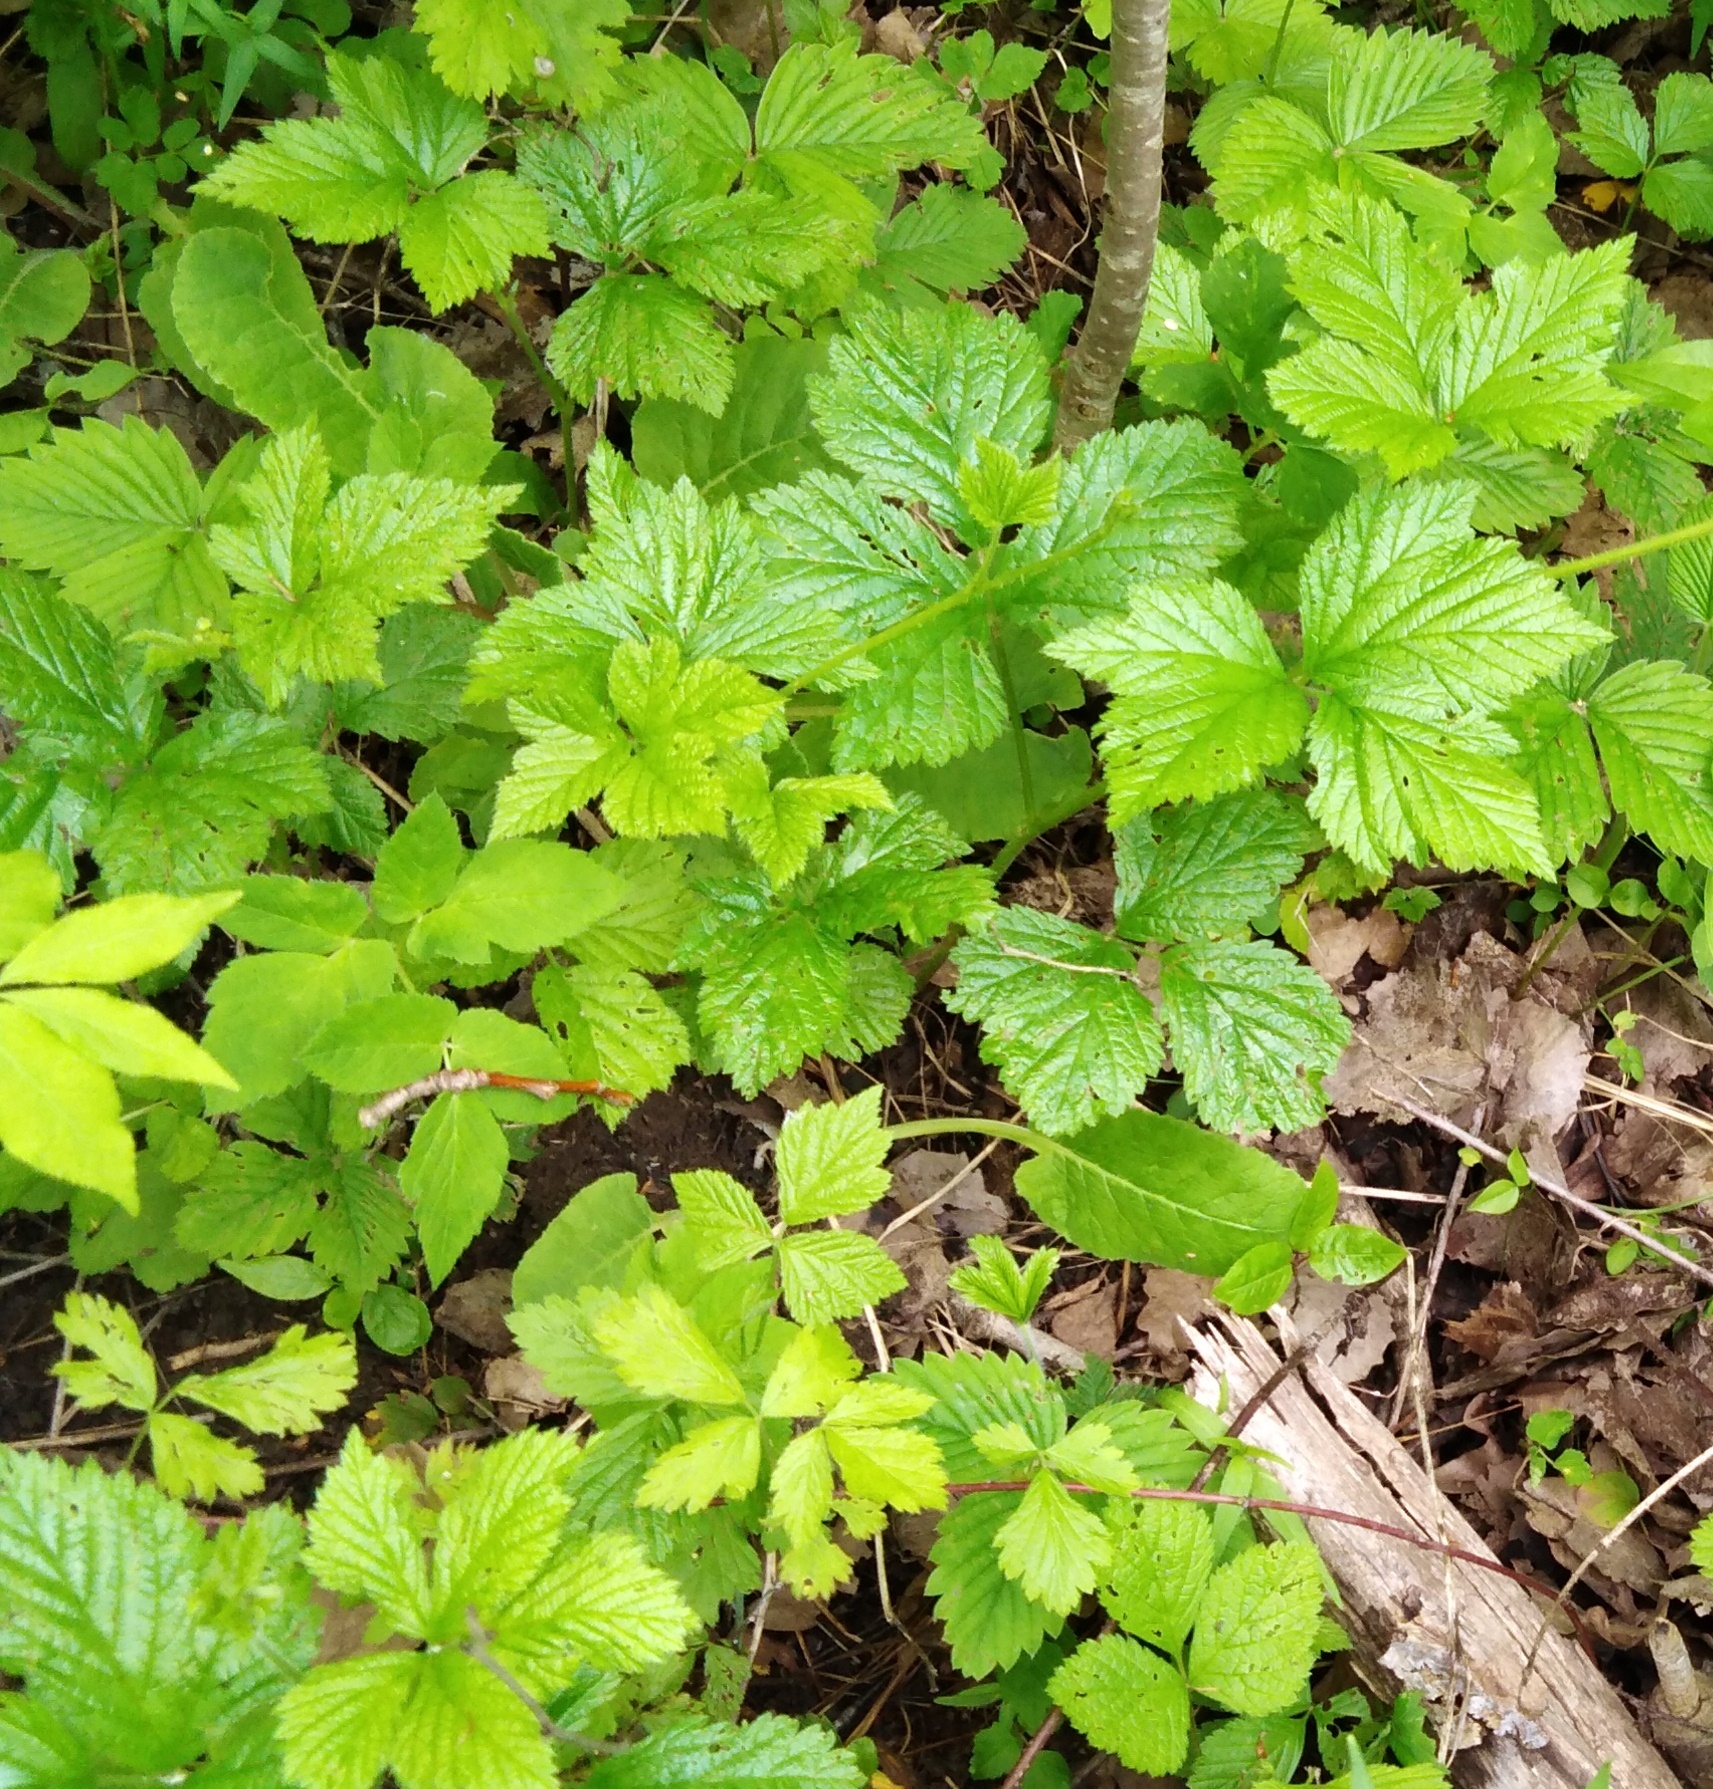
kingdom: Plantae
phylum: Tracheophyta
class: Magnoliopsida
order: Rosales
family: Rosaceae
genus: Rubus
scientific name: Rubus saxatilis
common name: Stone bramble
